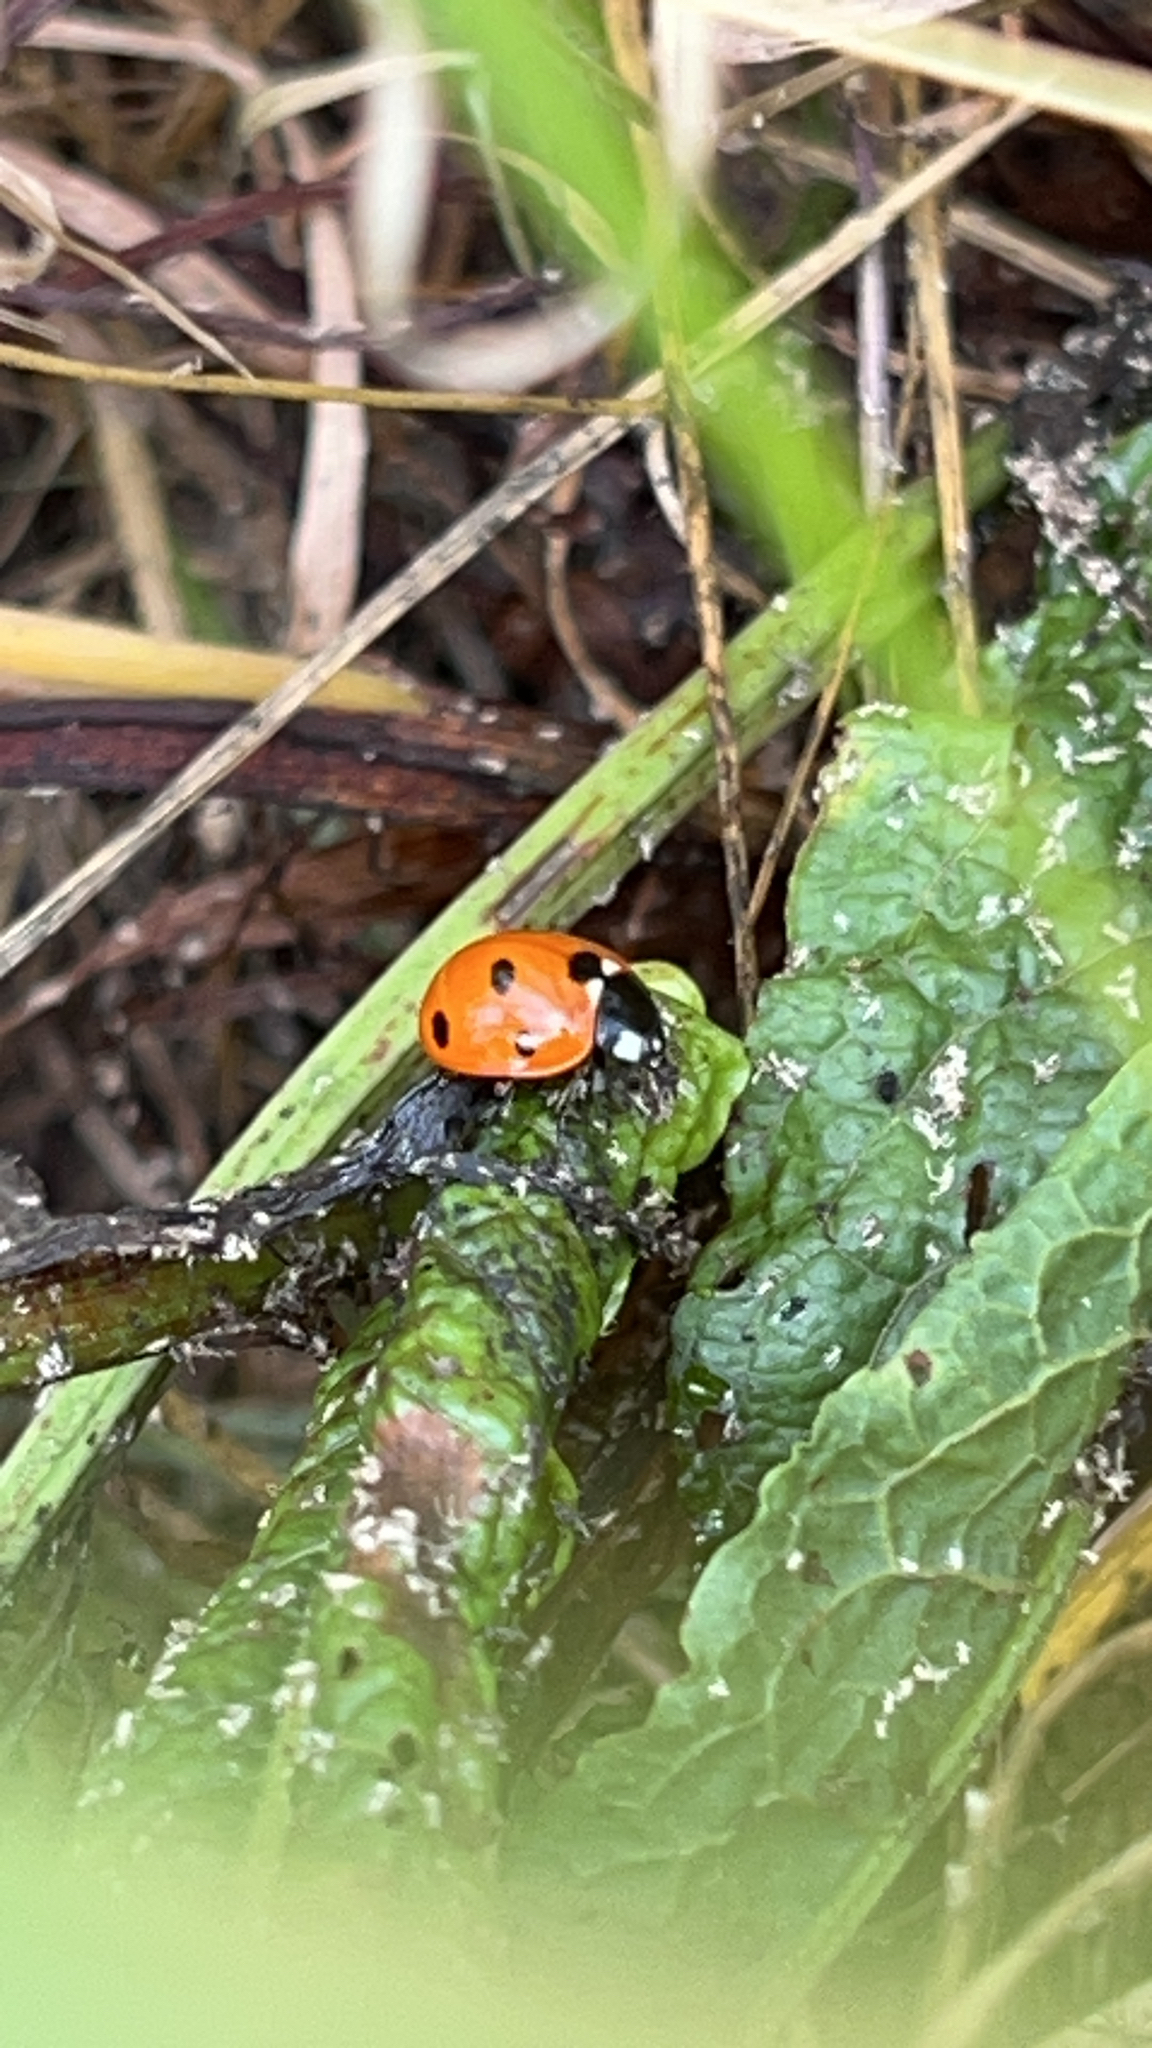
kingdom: Animalia
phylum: Arthropoda
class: Insecta
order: Coleoptera
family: Coccinellidae
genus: Coccinella
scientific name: Coccinella septempunctata
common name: Sevenspotted lady beetle
